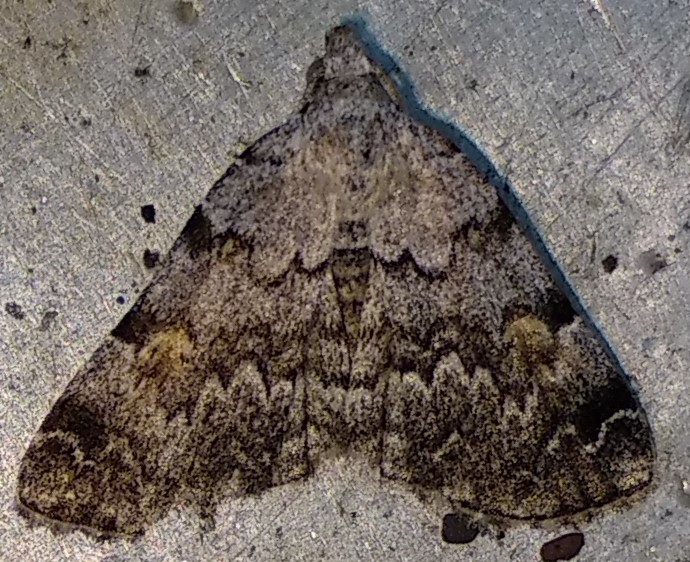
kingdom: Animalia
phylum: Arthropoda
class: Insecta
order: Lepidoptera
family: Erebidae
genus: Idia
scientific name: Idia americalis
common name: American idia moth
